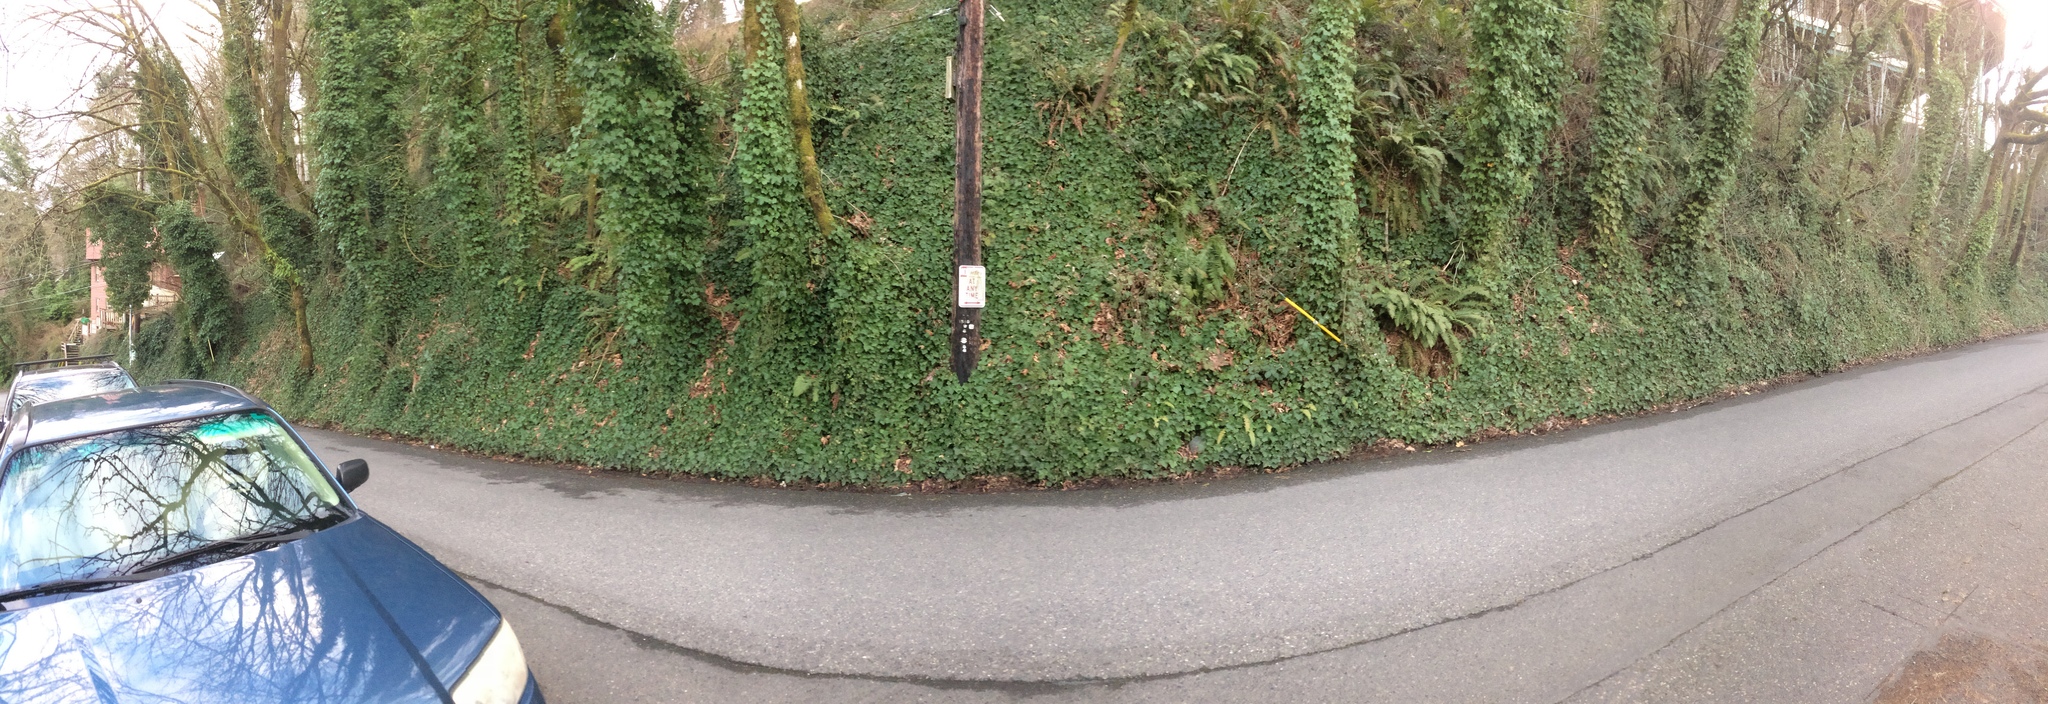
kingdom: Plantae
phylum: Tracheophyta
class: Magnoliopsida
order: Apiales
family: Araliaceae
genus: Hedera
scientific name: Hedera helix
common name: Ivy
